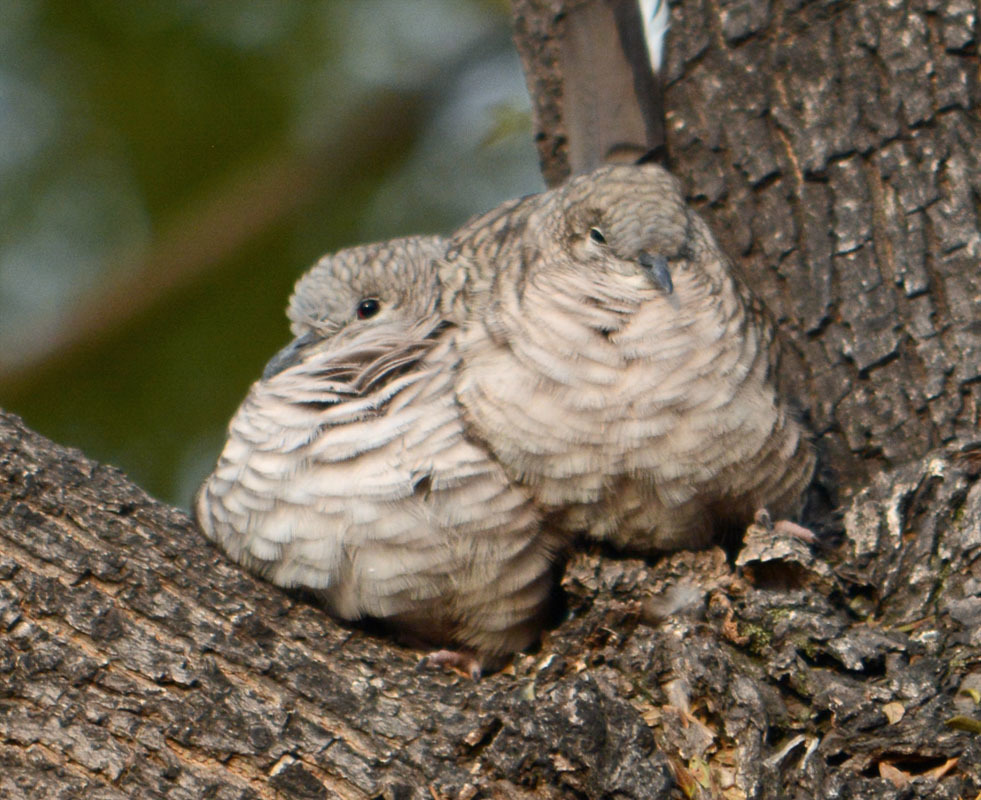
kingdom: Animalia
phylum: Chordata
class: Aves
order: Columbiformes
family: Columbidae
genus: Columbina
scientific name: Columbina inca
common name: Inca dove
